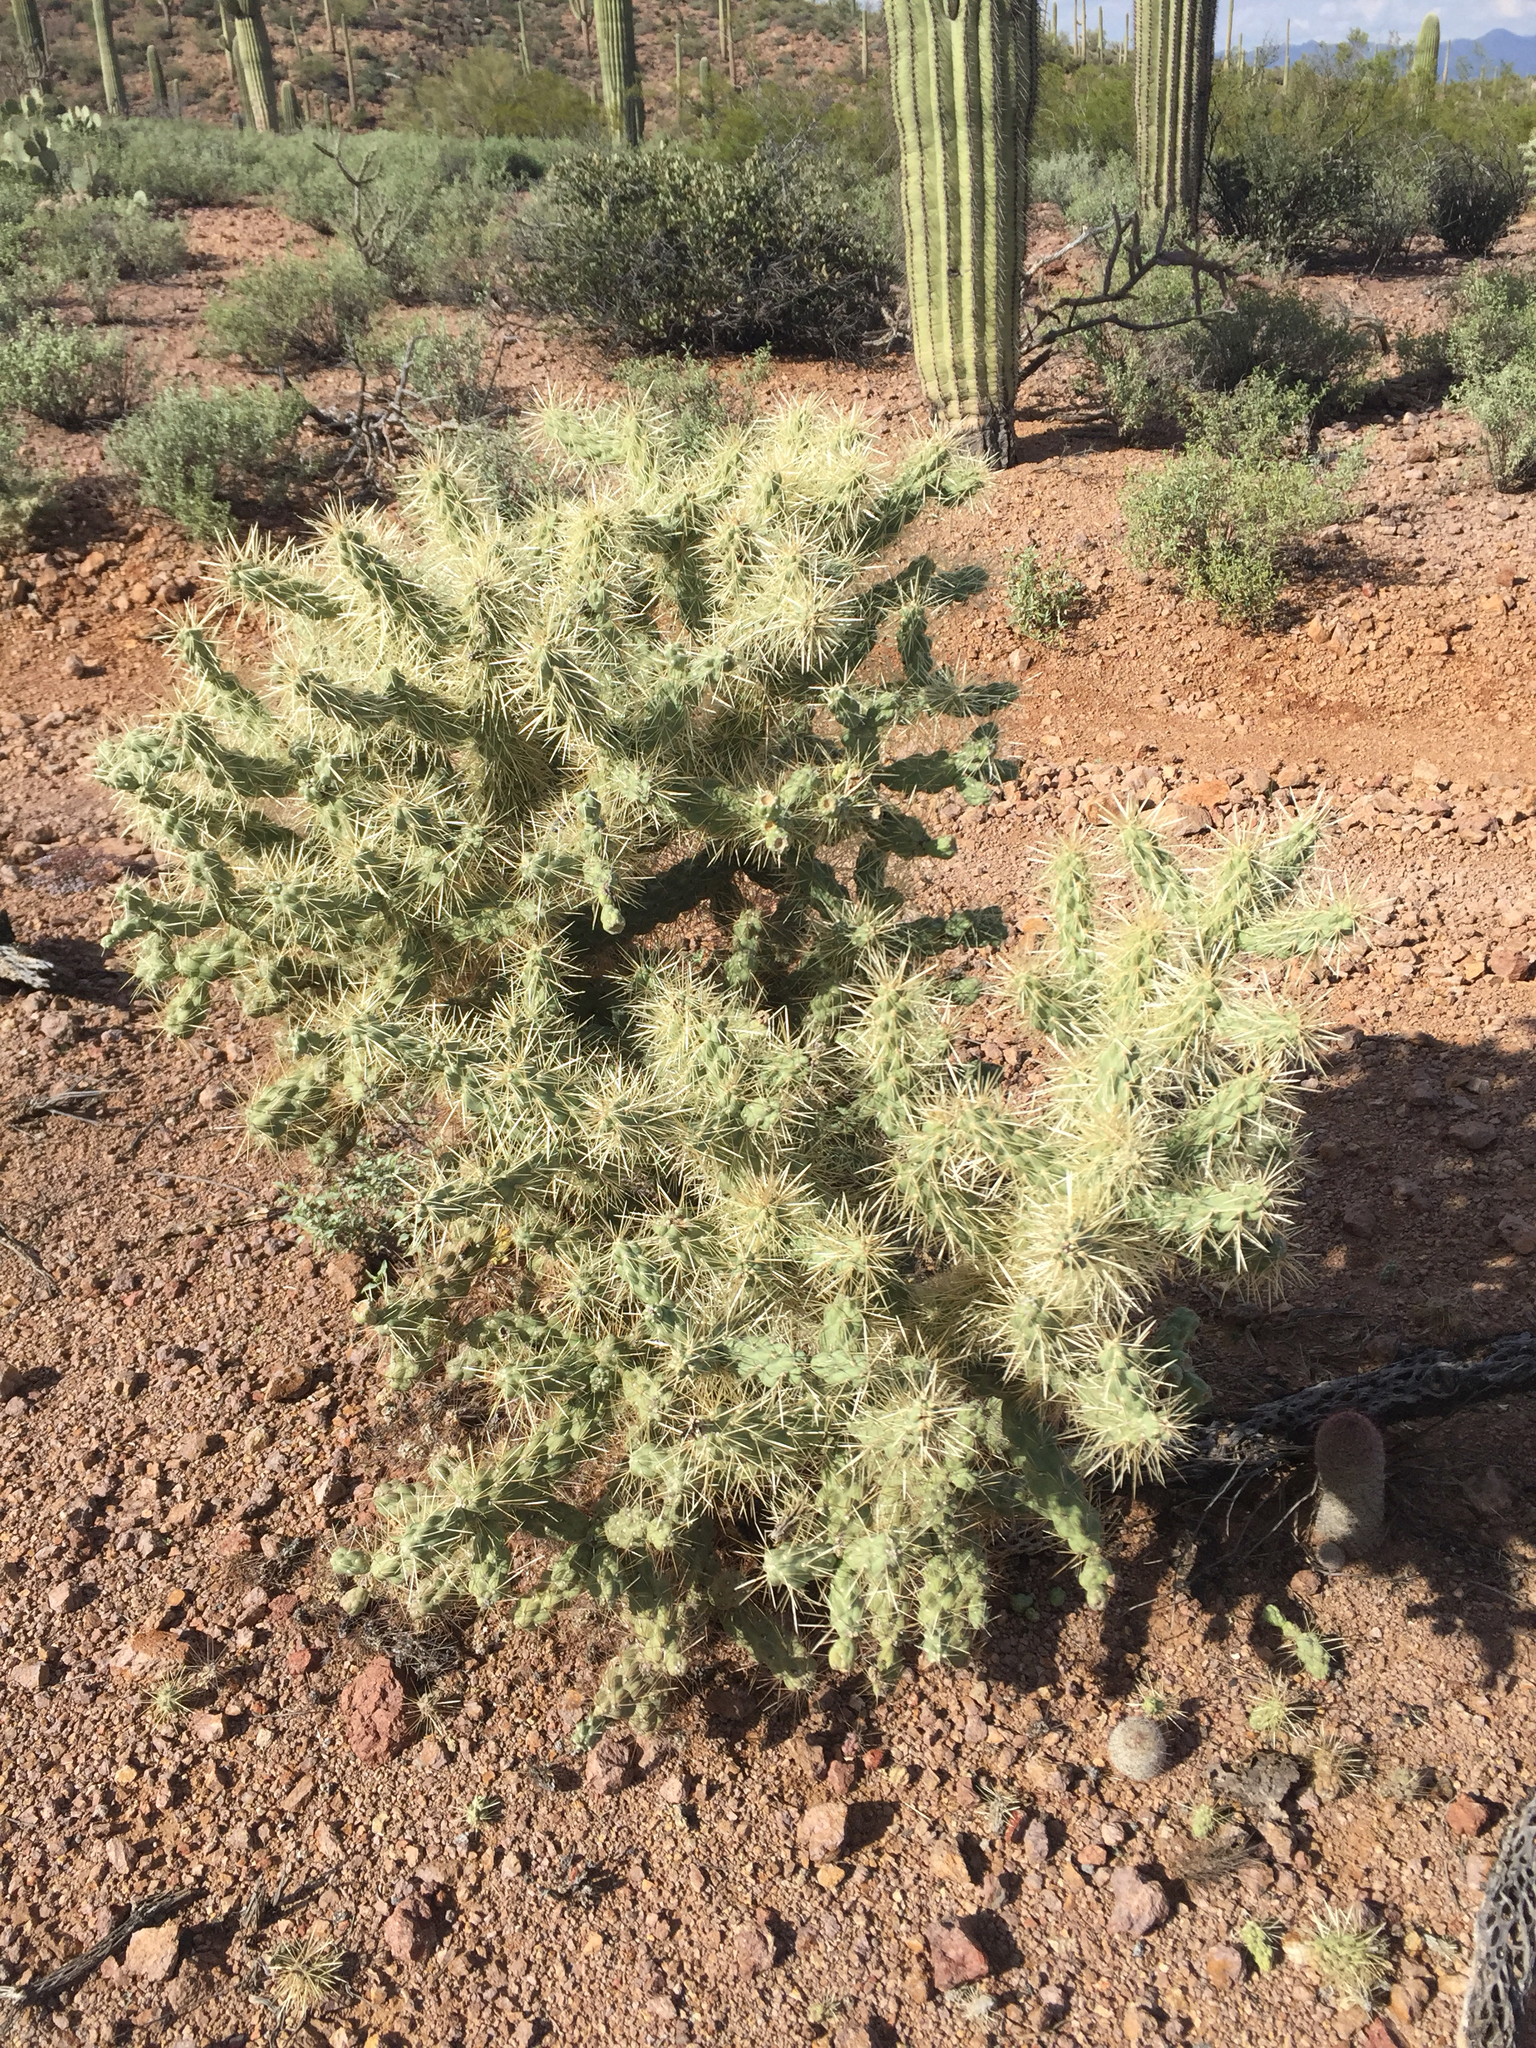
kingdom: Plantae
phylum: Tracheophyta
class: Magnoliopsida
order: Caryophyllales
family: Cactaceae
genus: Cylindropuntia
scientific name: Cylindropuntia fulgida
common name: Jumping cholla
